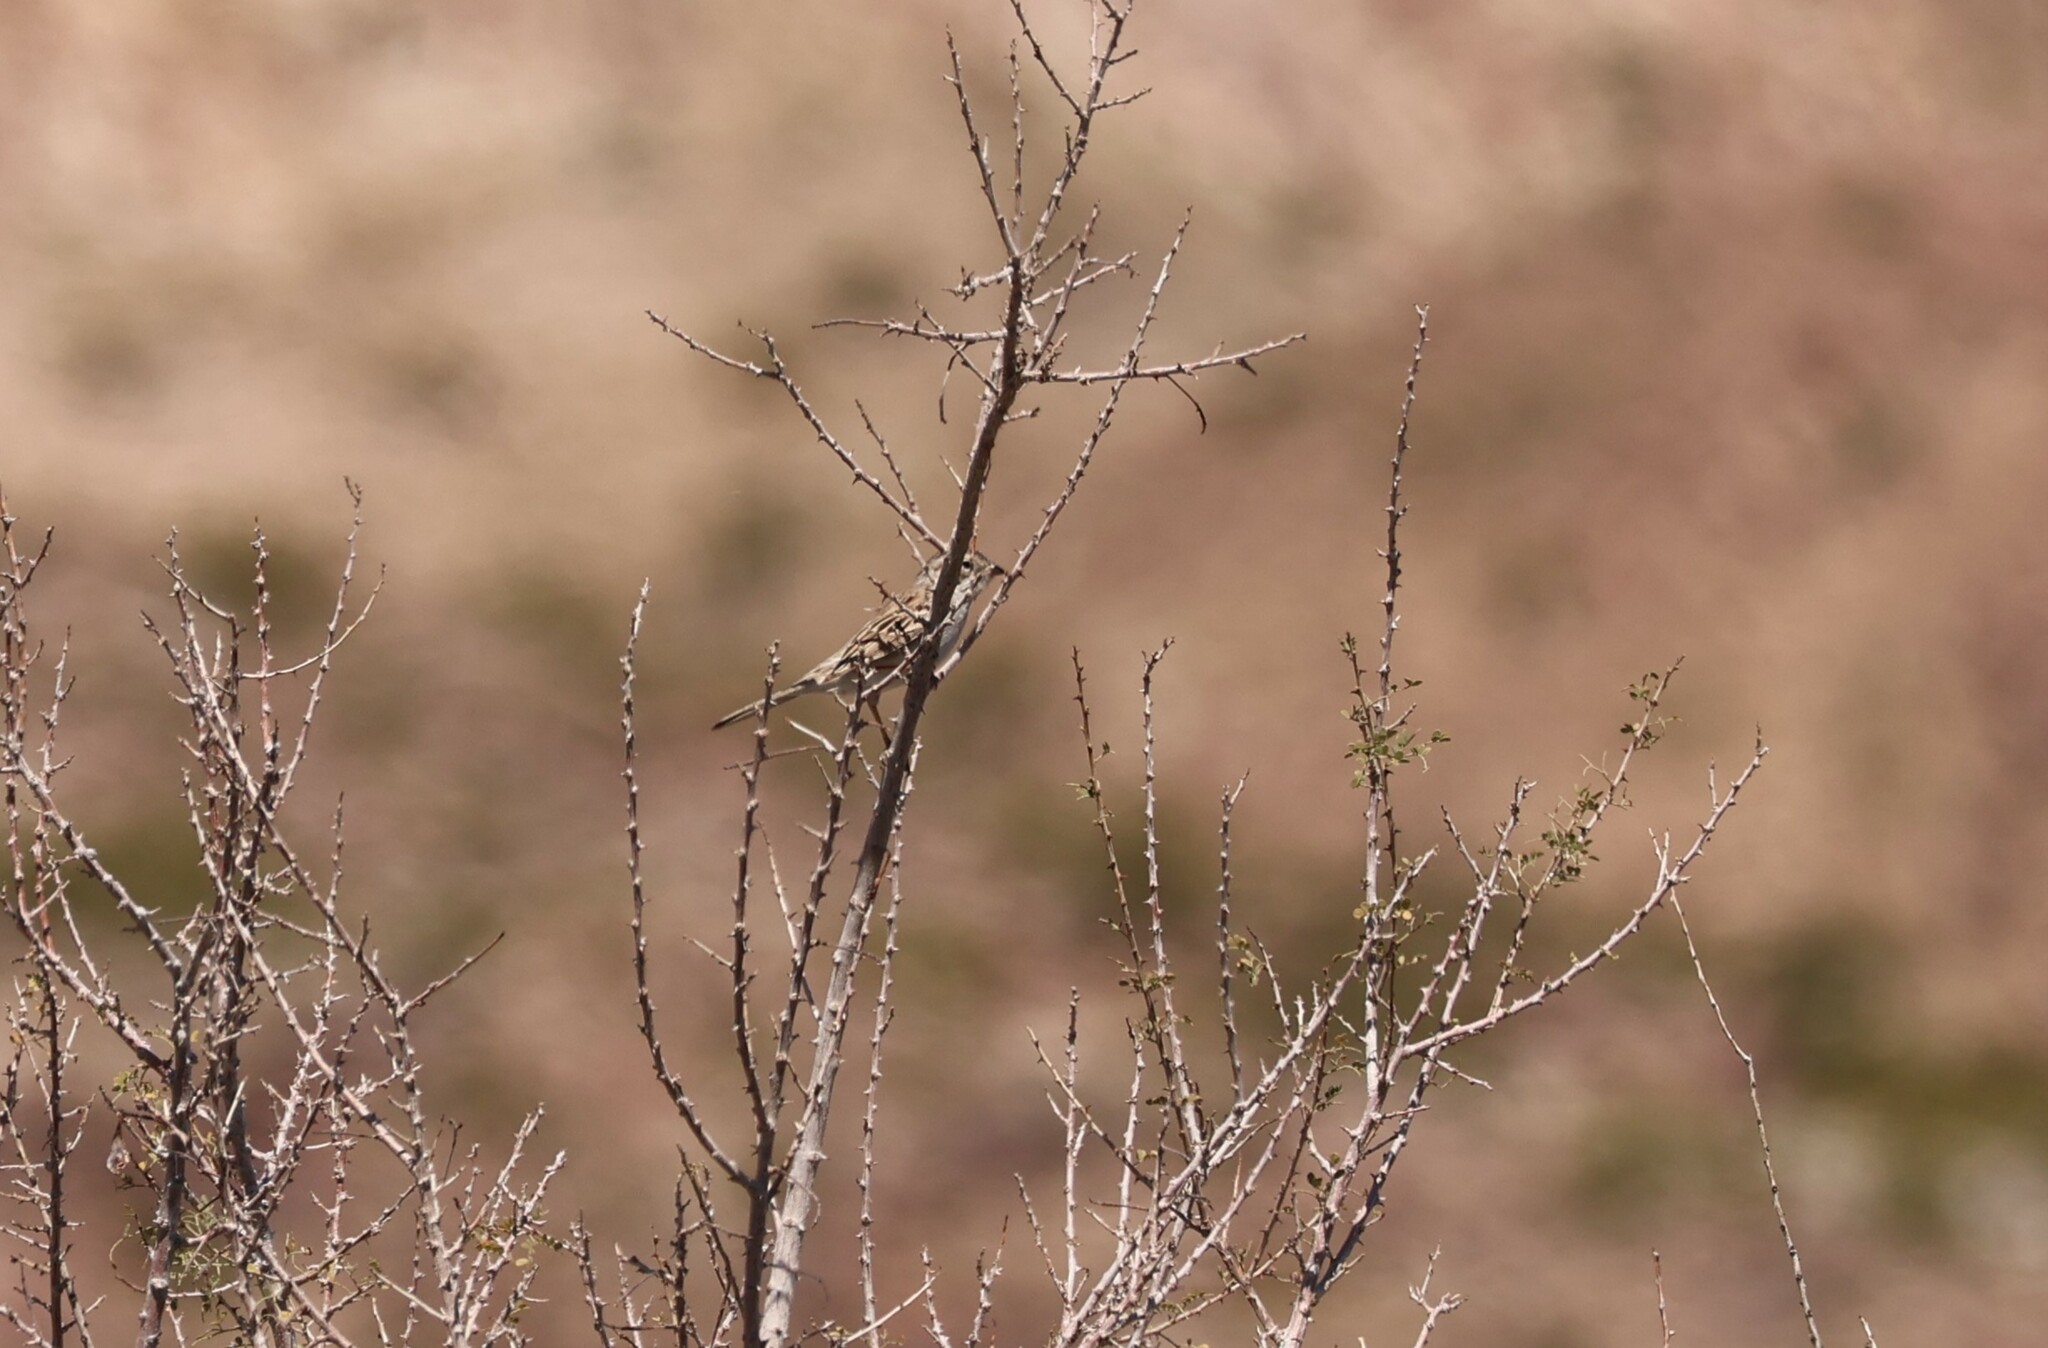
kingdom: Animalia
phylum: Chordata
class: Aves
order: Passeriformes
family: Passerellidae
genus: Spizella
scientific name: Spizella breweri
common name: Brewer's sparrow
